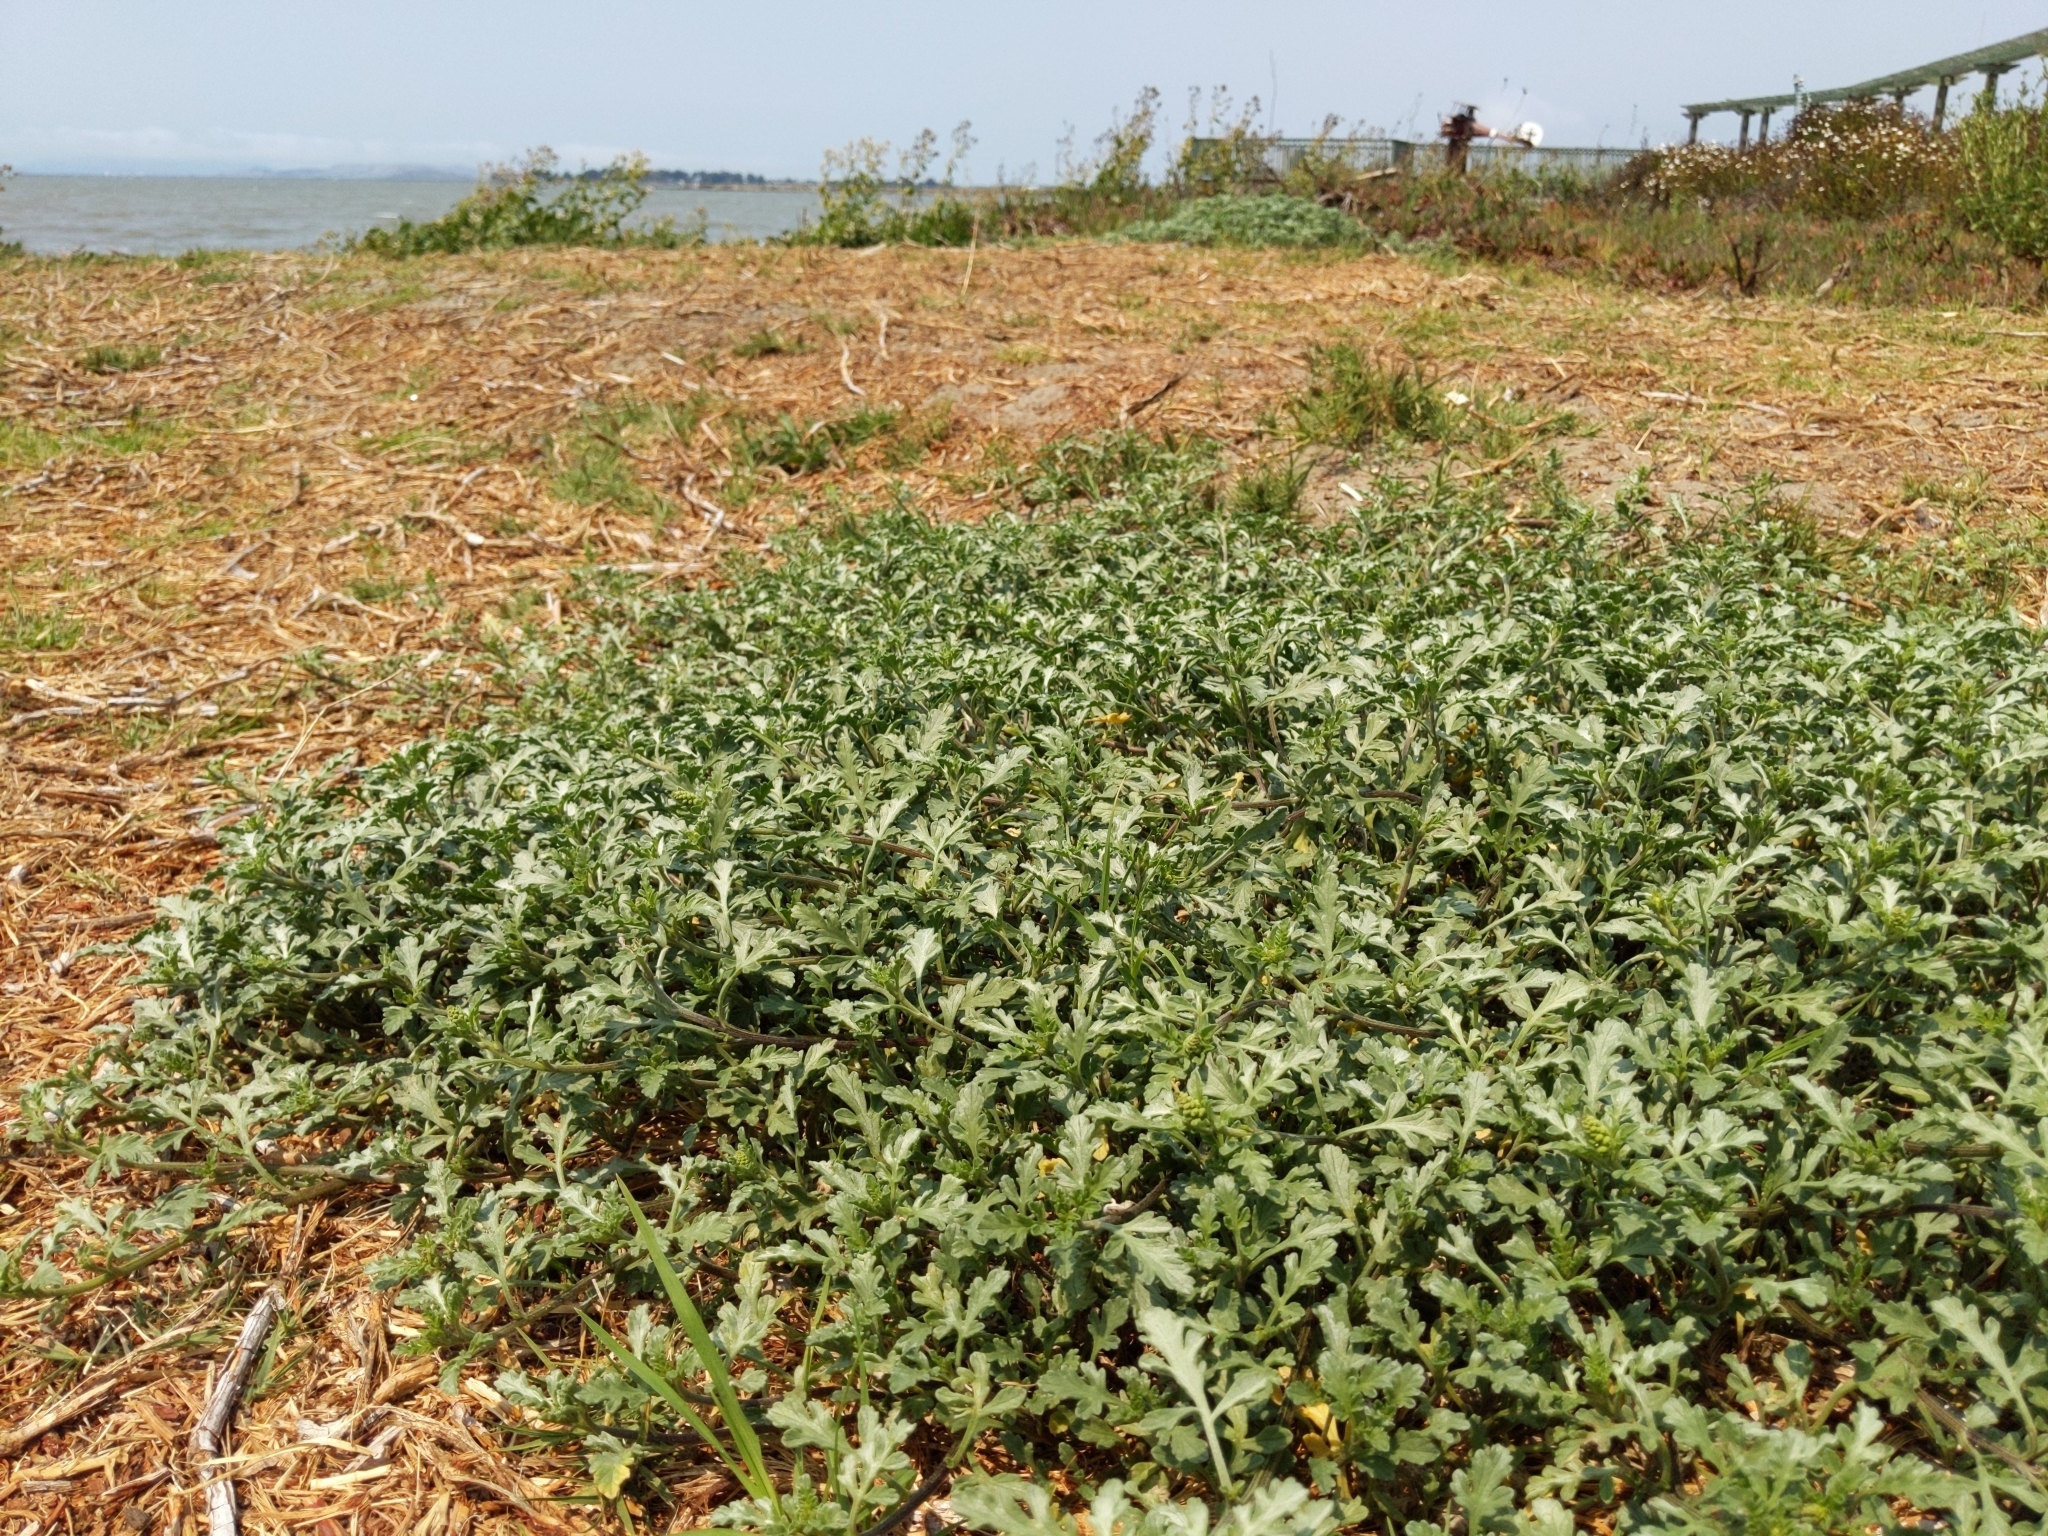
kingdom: Plantae
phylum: Tracheophyta
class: Magnoliopsida
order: Asterales
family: Asteraceae
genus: Ambrosia
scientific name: Ambrosia chamissonis
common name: Beachbur
